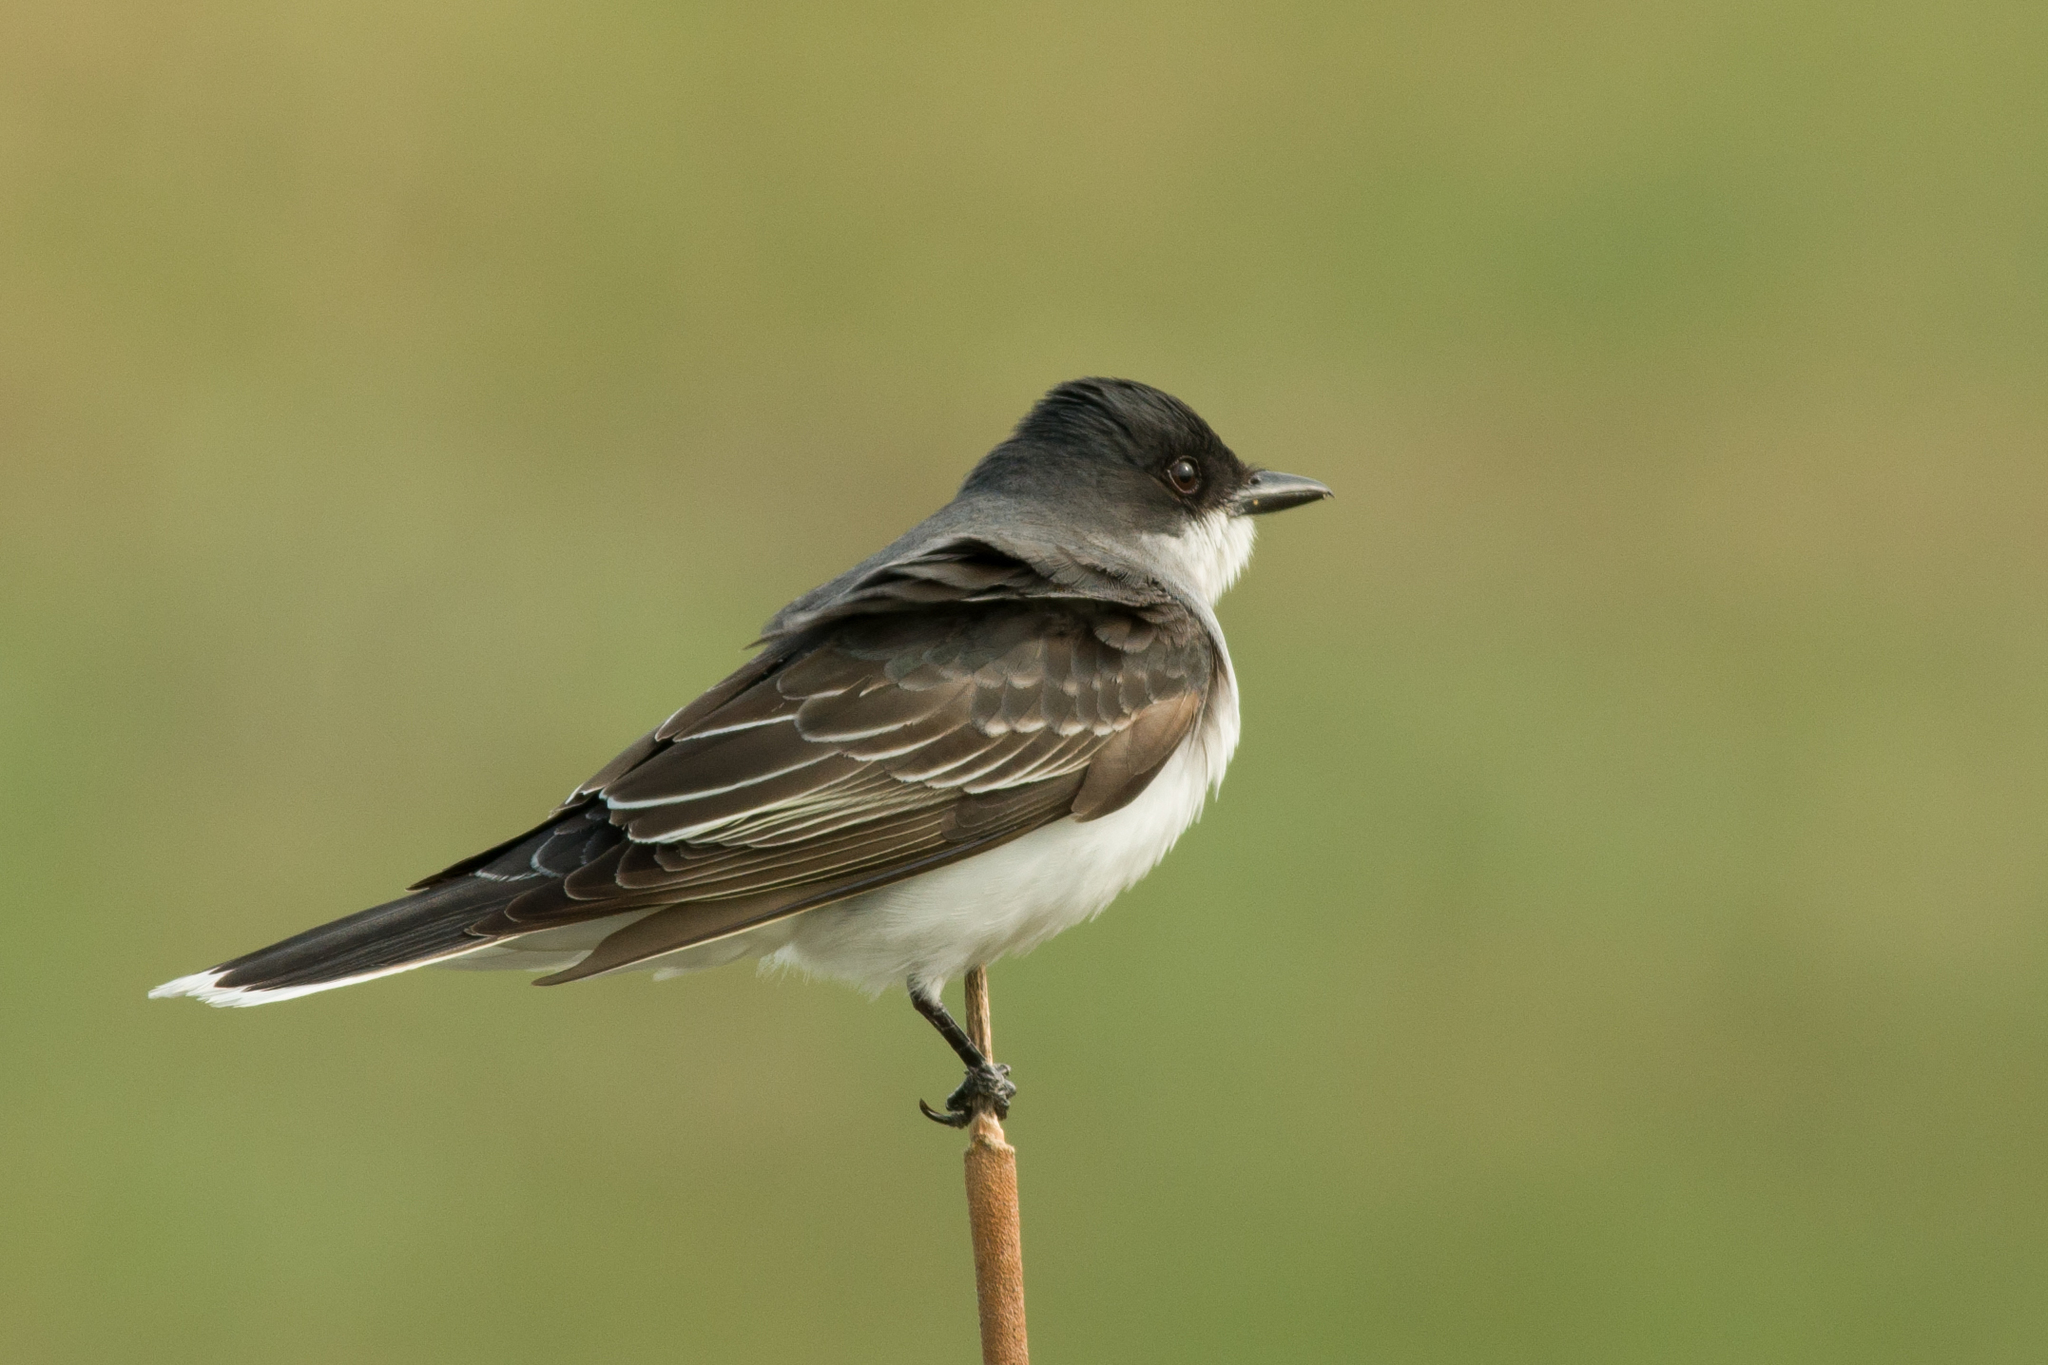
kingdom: Animalia
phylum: Chordata
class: Aves
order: Passeriformes
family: Tyrannidae
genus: Tyrannus
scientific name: Tyrannus tyrannus
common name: Eastern kingbird
